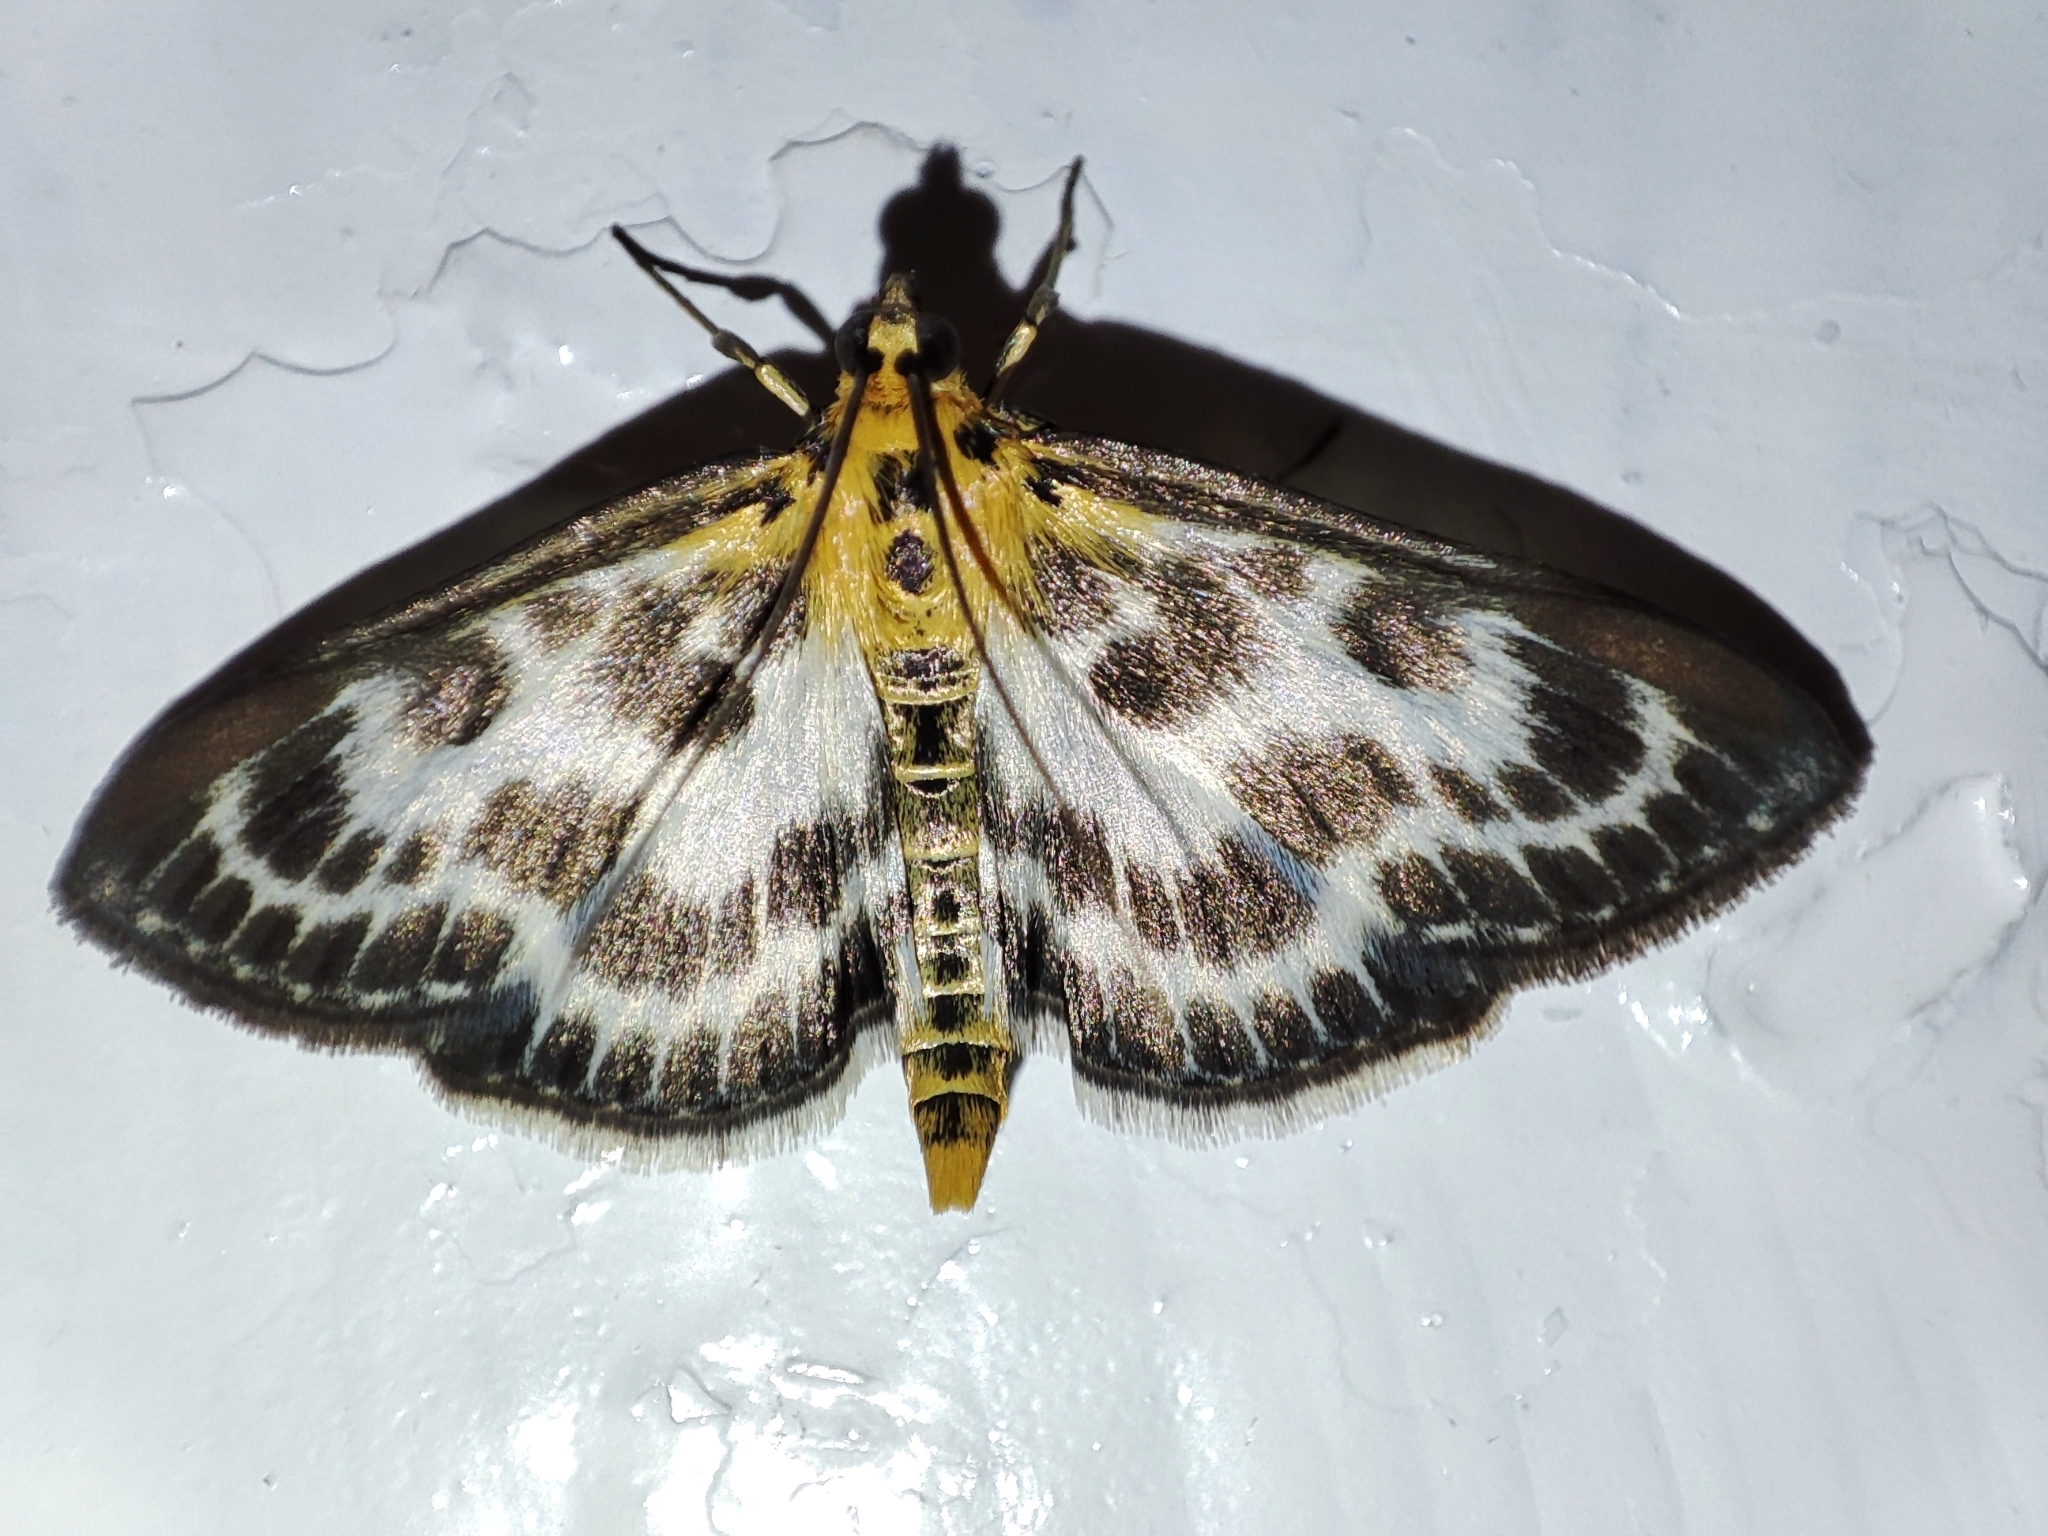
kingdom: Animalia
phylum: Arthropoda
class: Insecta
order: Lepidoptera
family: Crambidae
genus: Anania
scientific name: Anania hortulata
